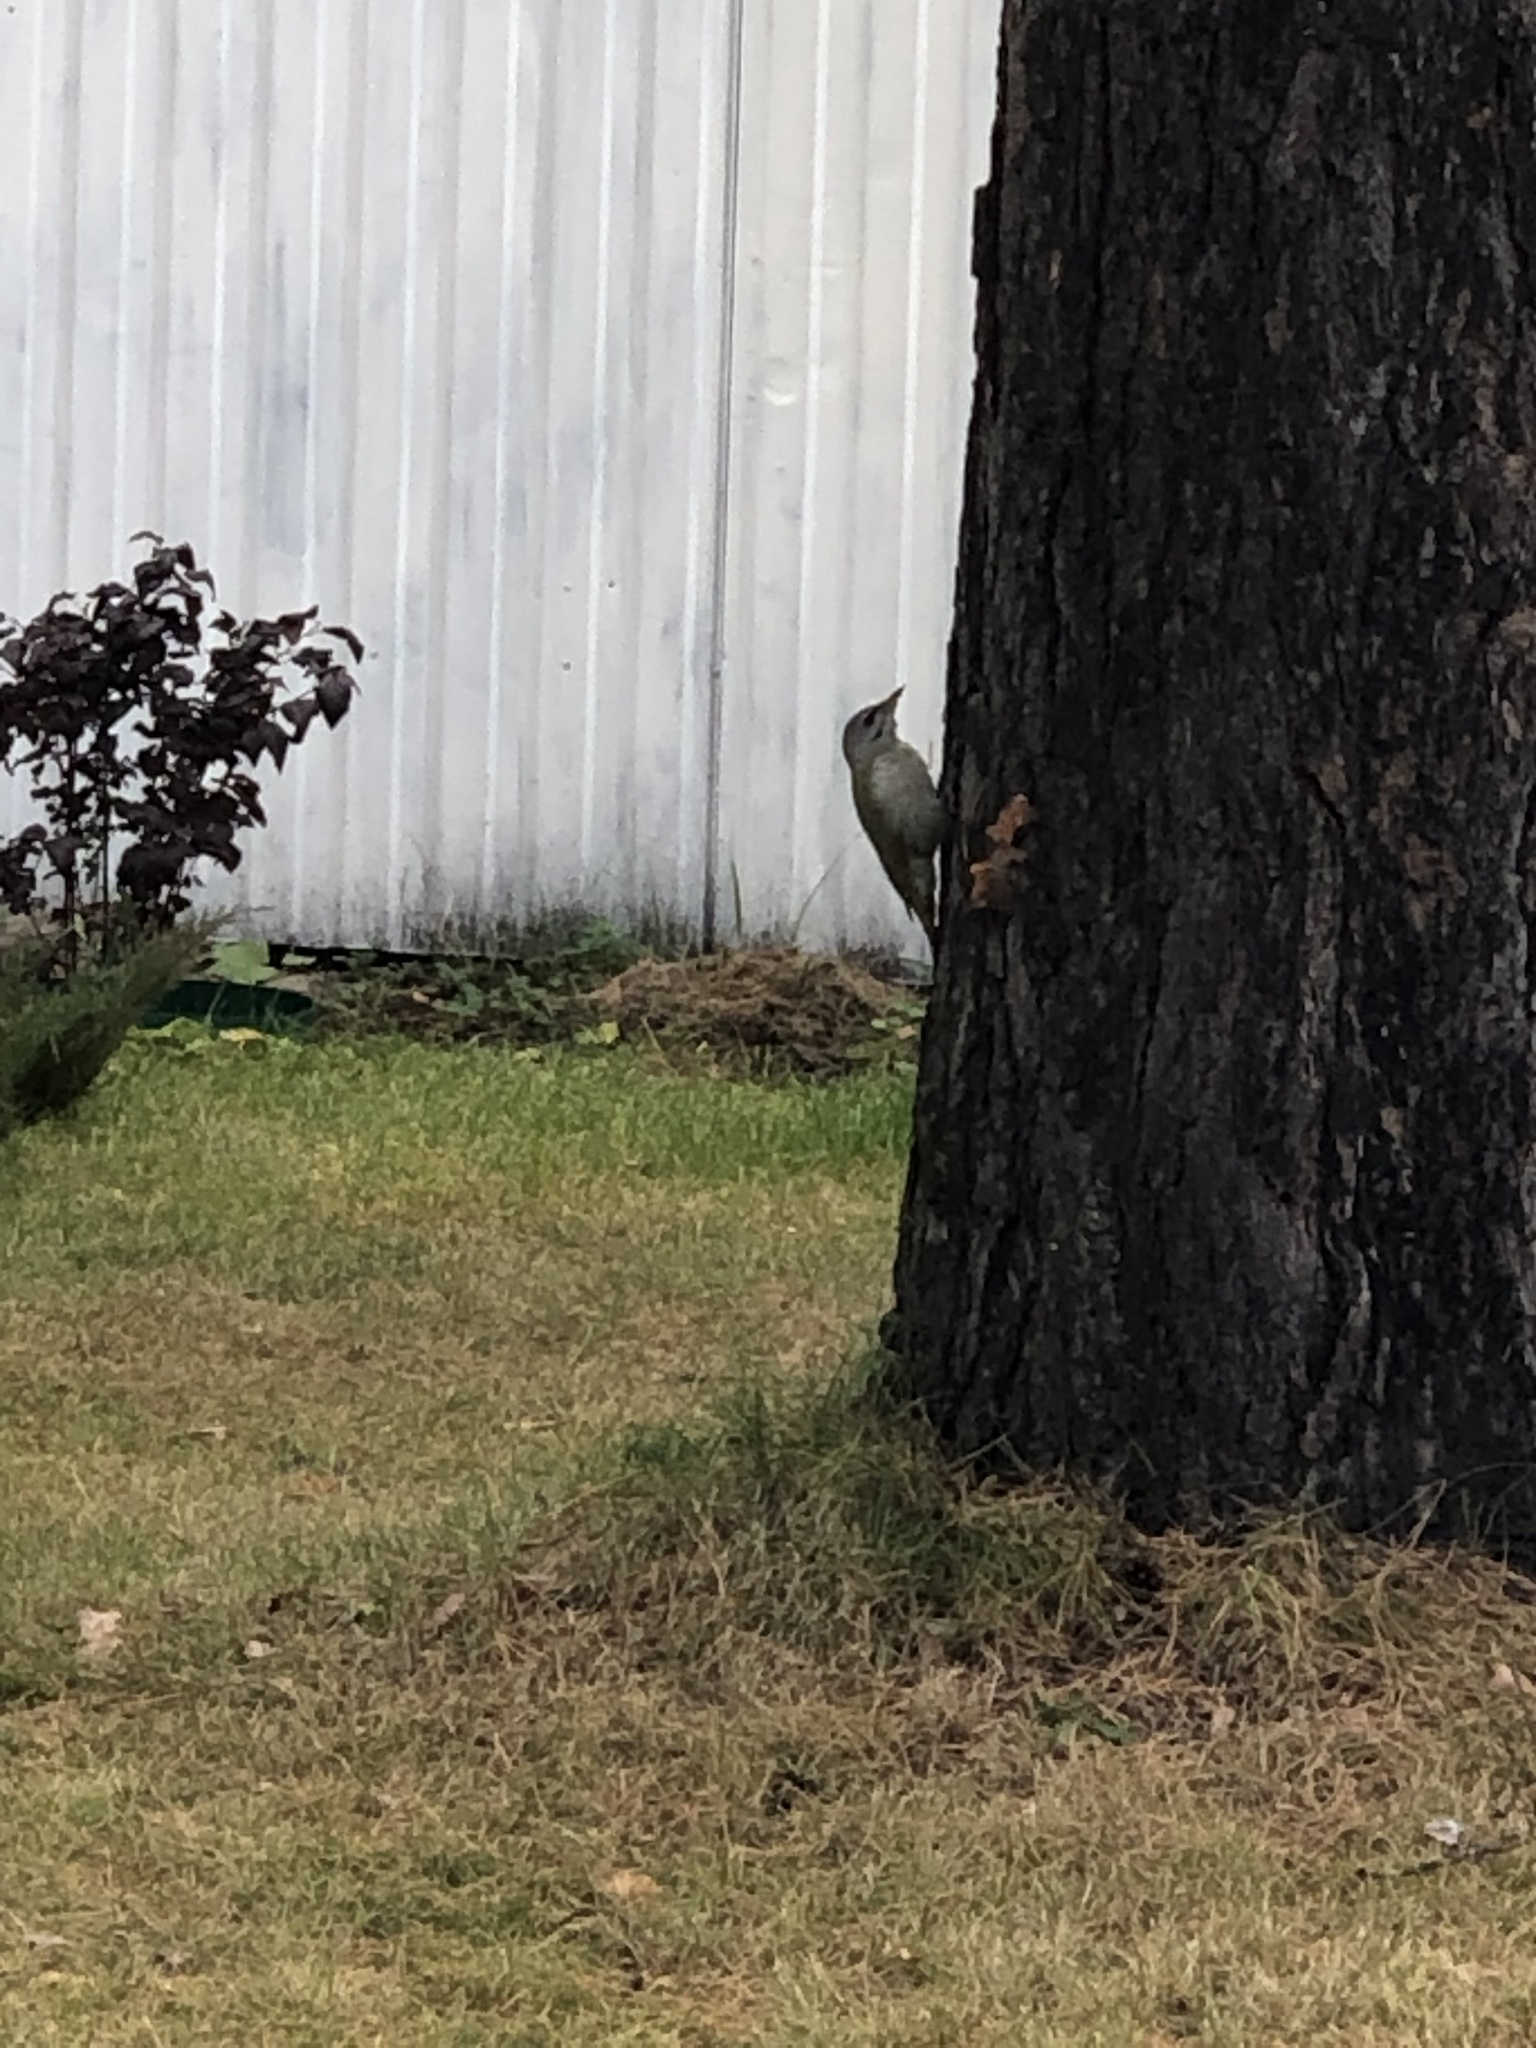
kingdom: Animalia
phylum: Chordata
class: Aves
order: Piciformes
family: Picidae
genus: Picus
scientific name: Picus canus
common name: Grey-headed woodpecker
